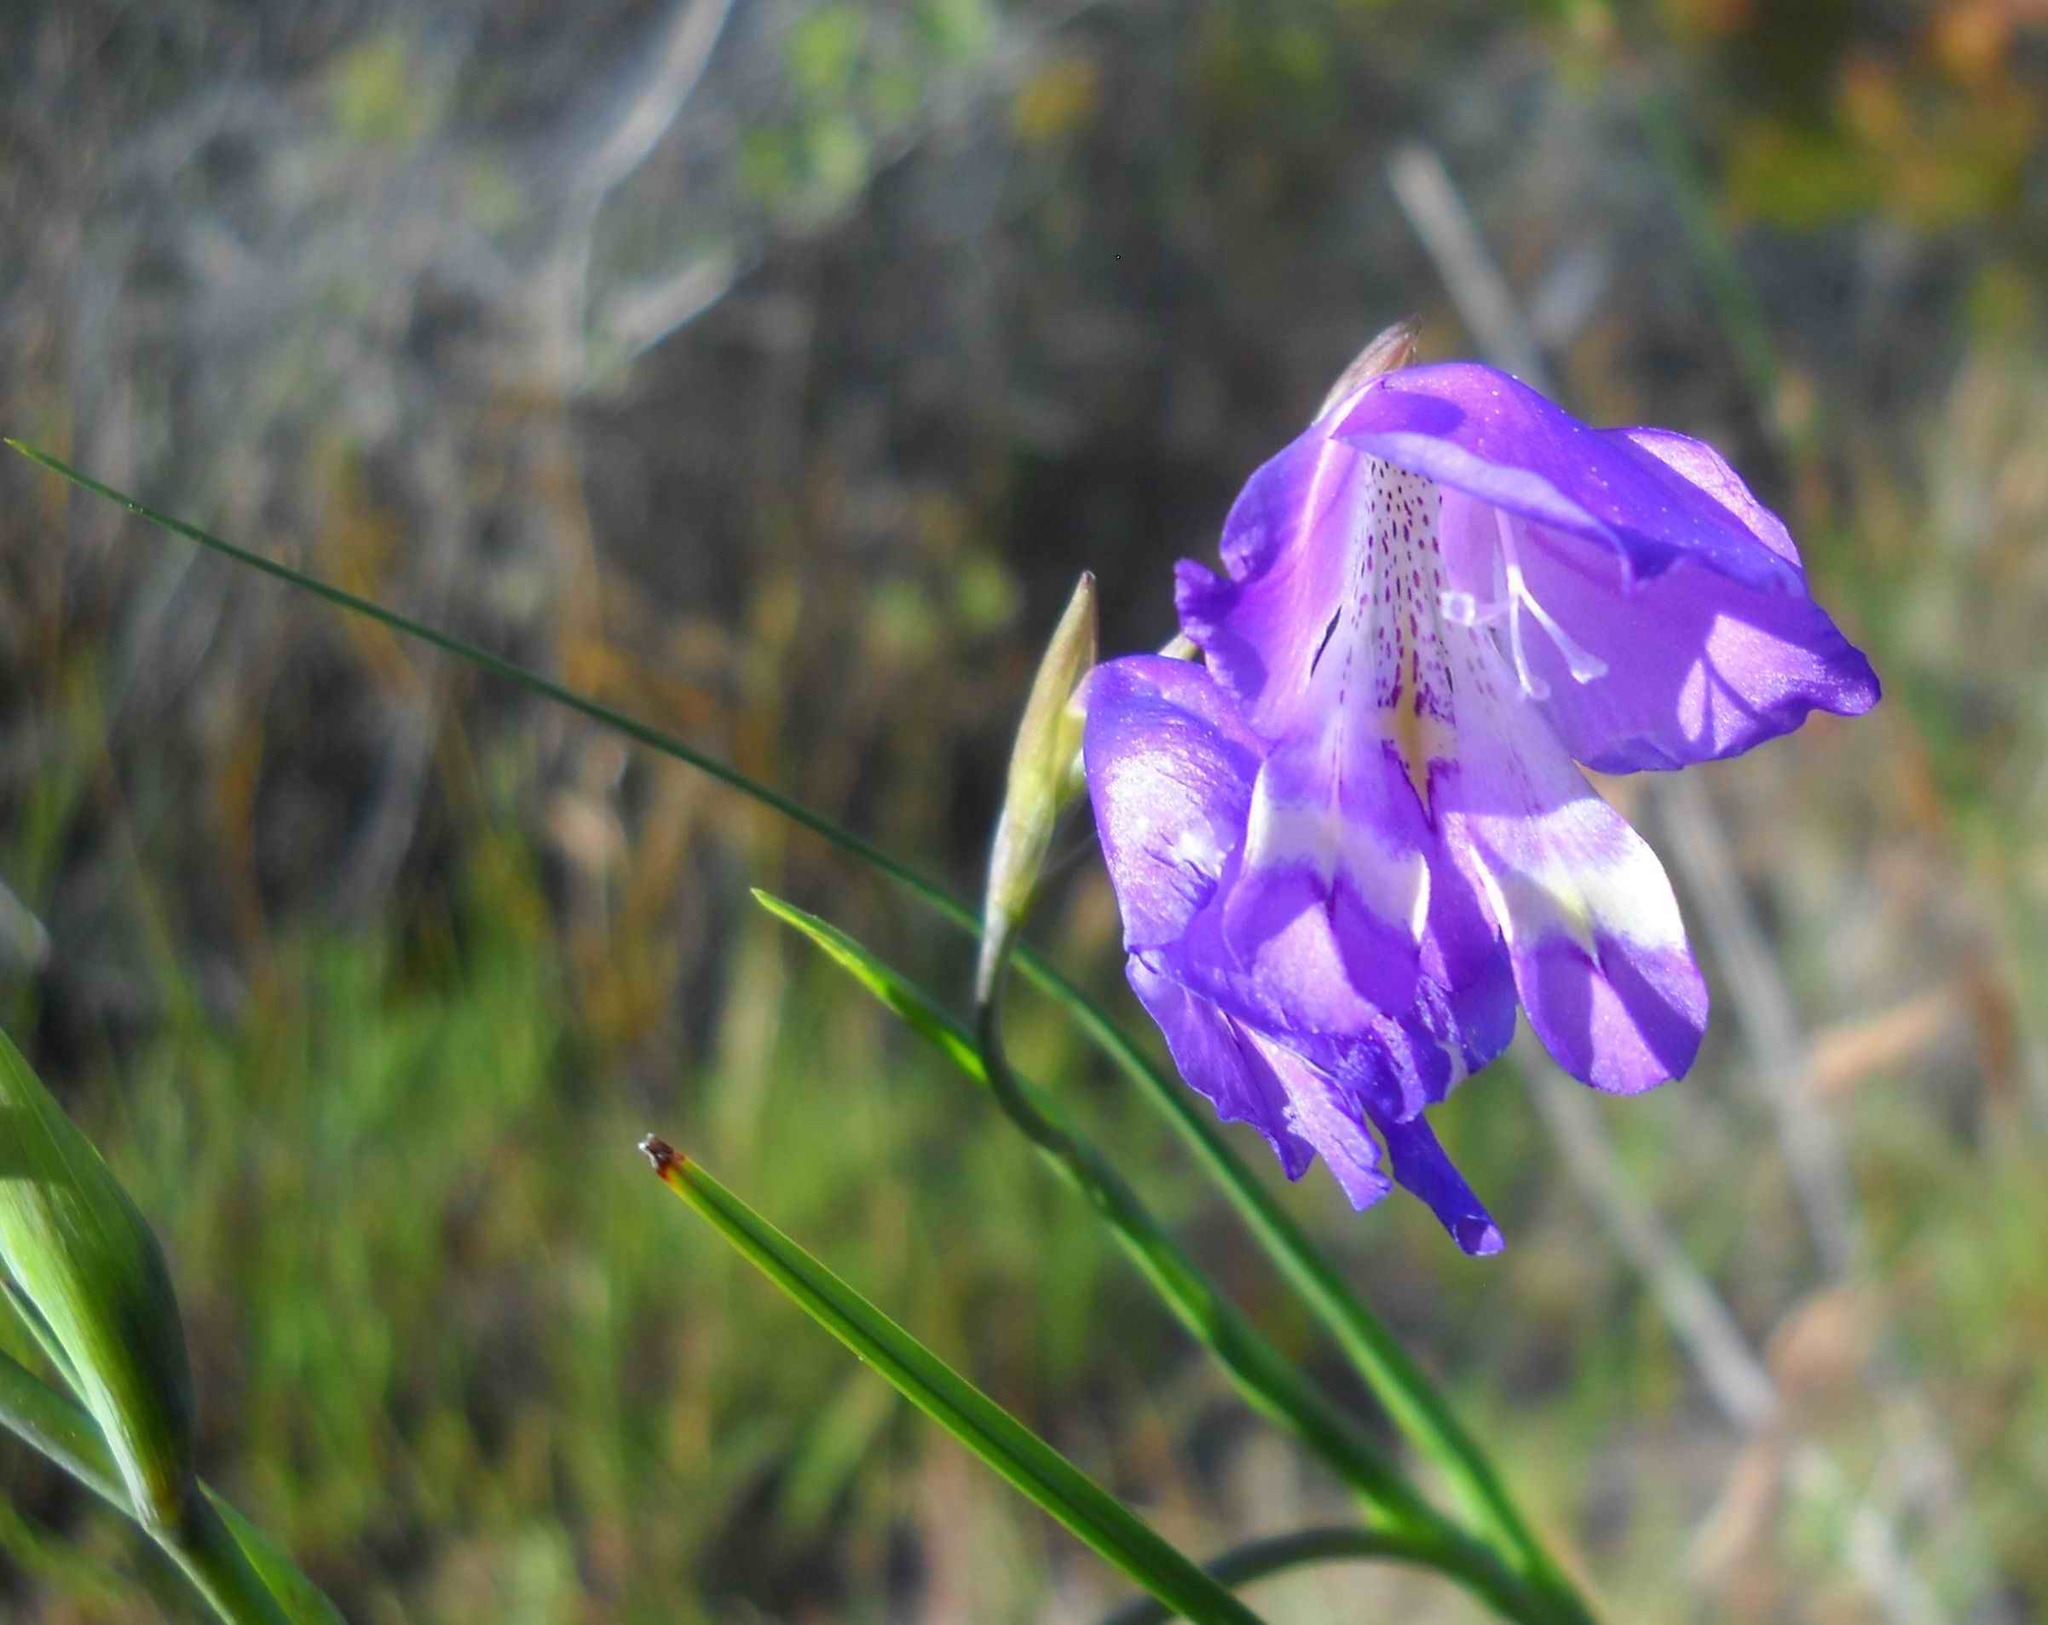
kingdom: Plantae
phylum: Tracheophyta
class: Liliopsida
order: Asparagales
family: Iridaceae
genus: Gladiolus
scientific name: Gladiolus rogersii
